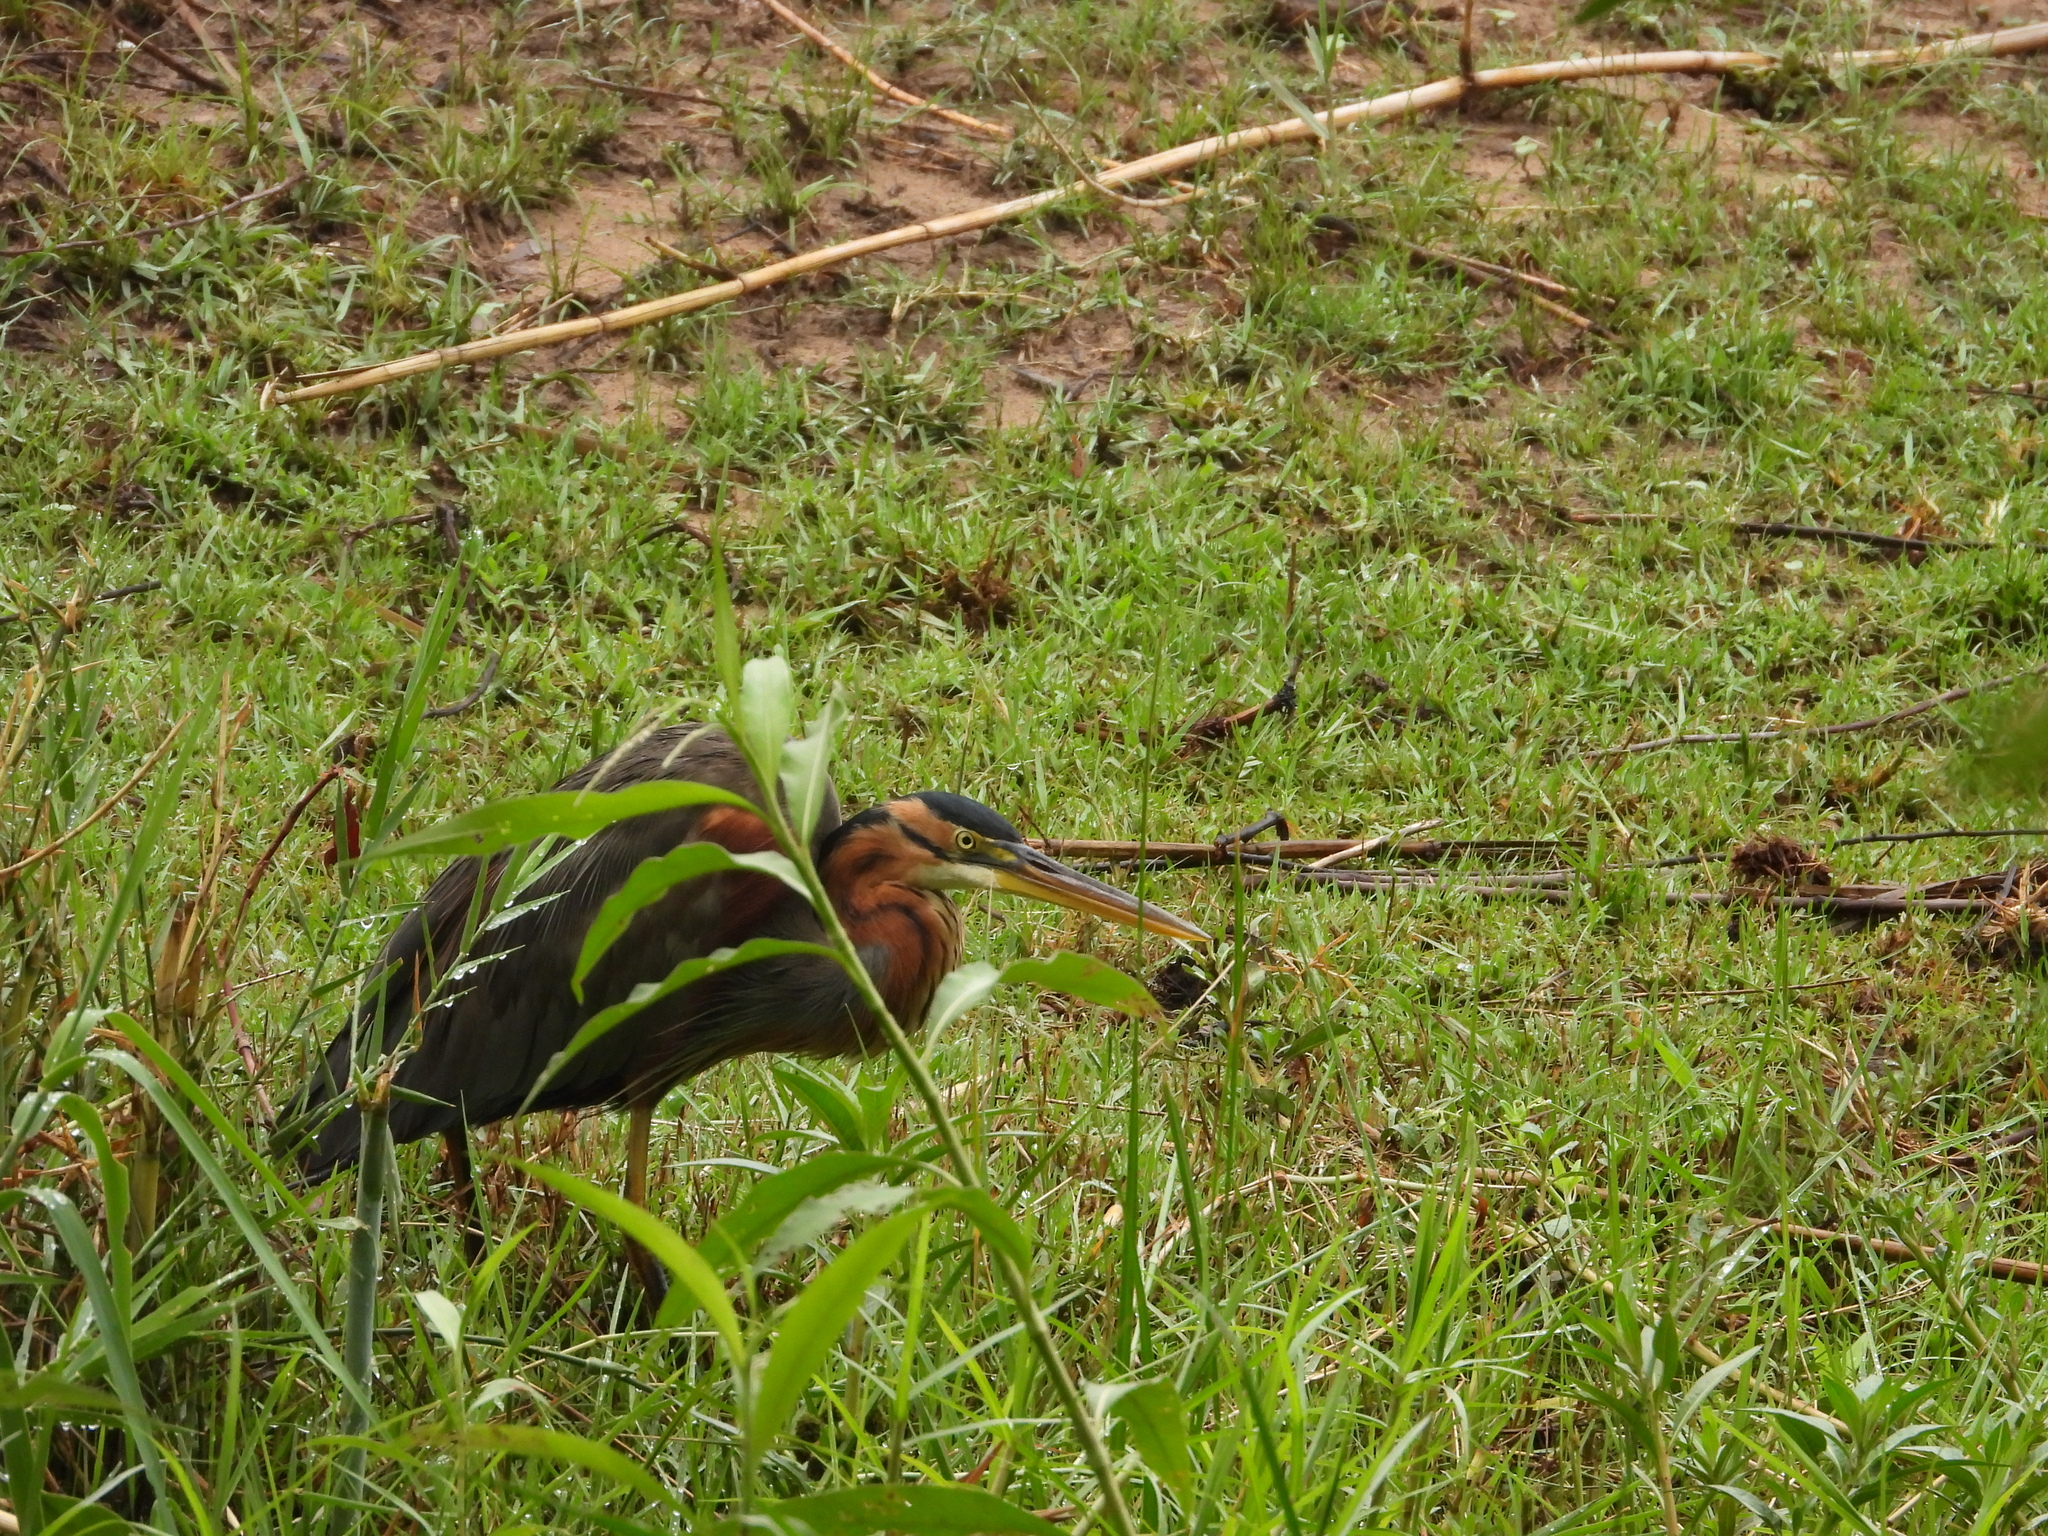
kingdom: Animalia
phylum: Chordata
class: Aves
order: Pelecaniformes
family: Ardeidae
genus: Ardea
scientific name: Ardea purpurea
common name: Purple heron
